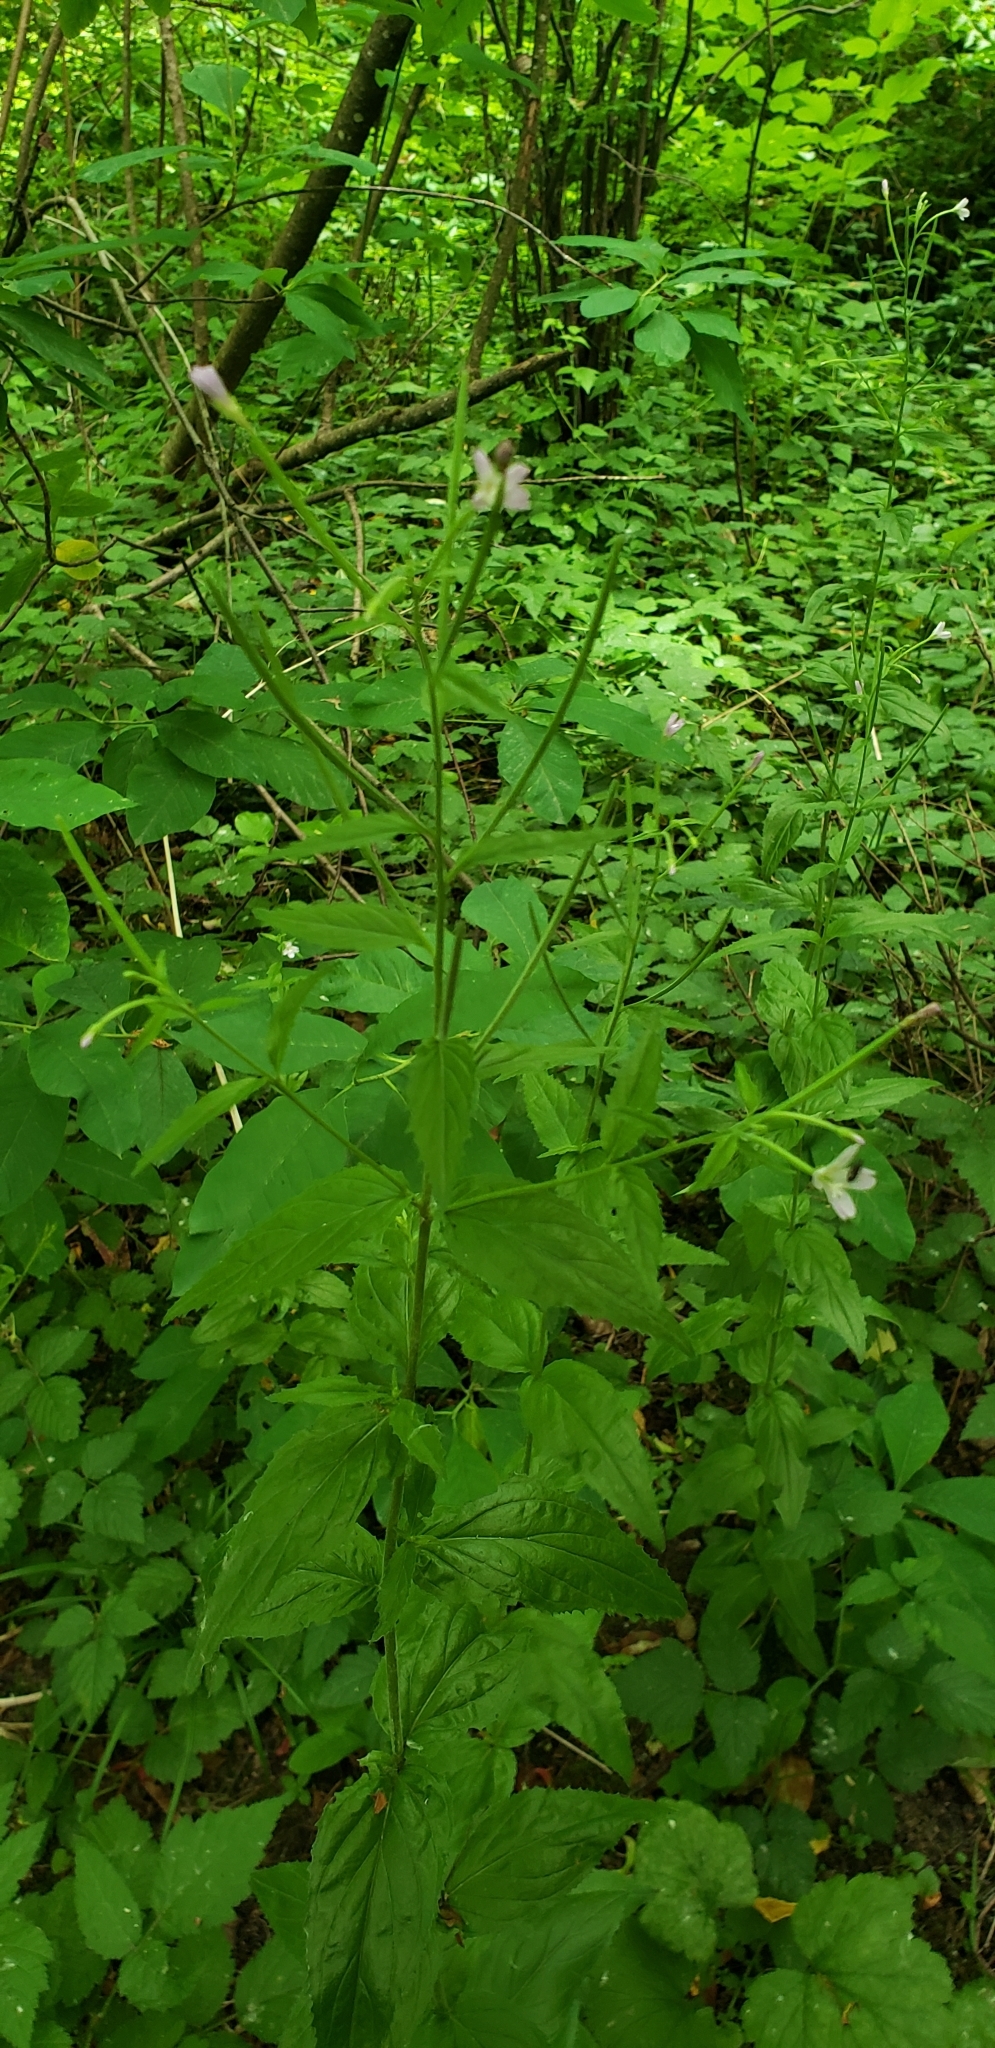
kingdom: Plantae
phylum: Tracheophyta
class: Magnoliopsida
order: Myrtales
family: Onagraceae
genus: Epilobium
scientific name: Epilobium ciliatum
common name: American willowherb
